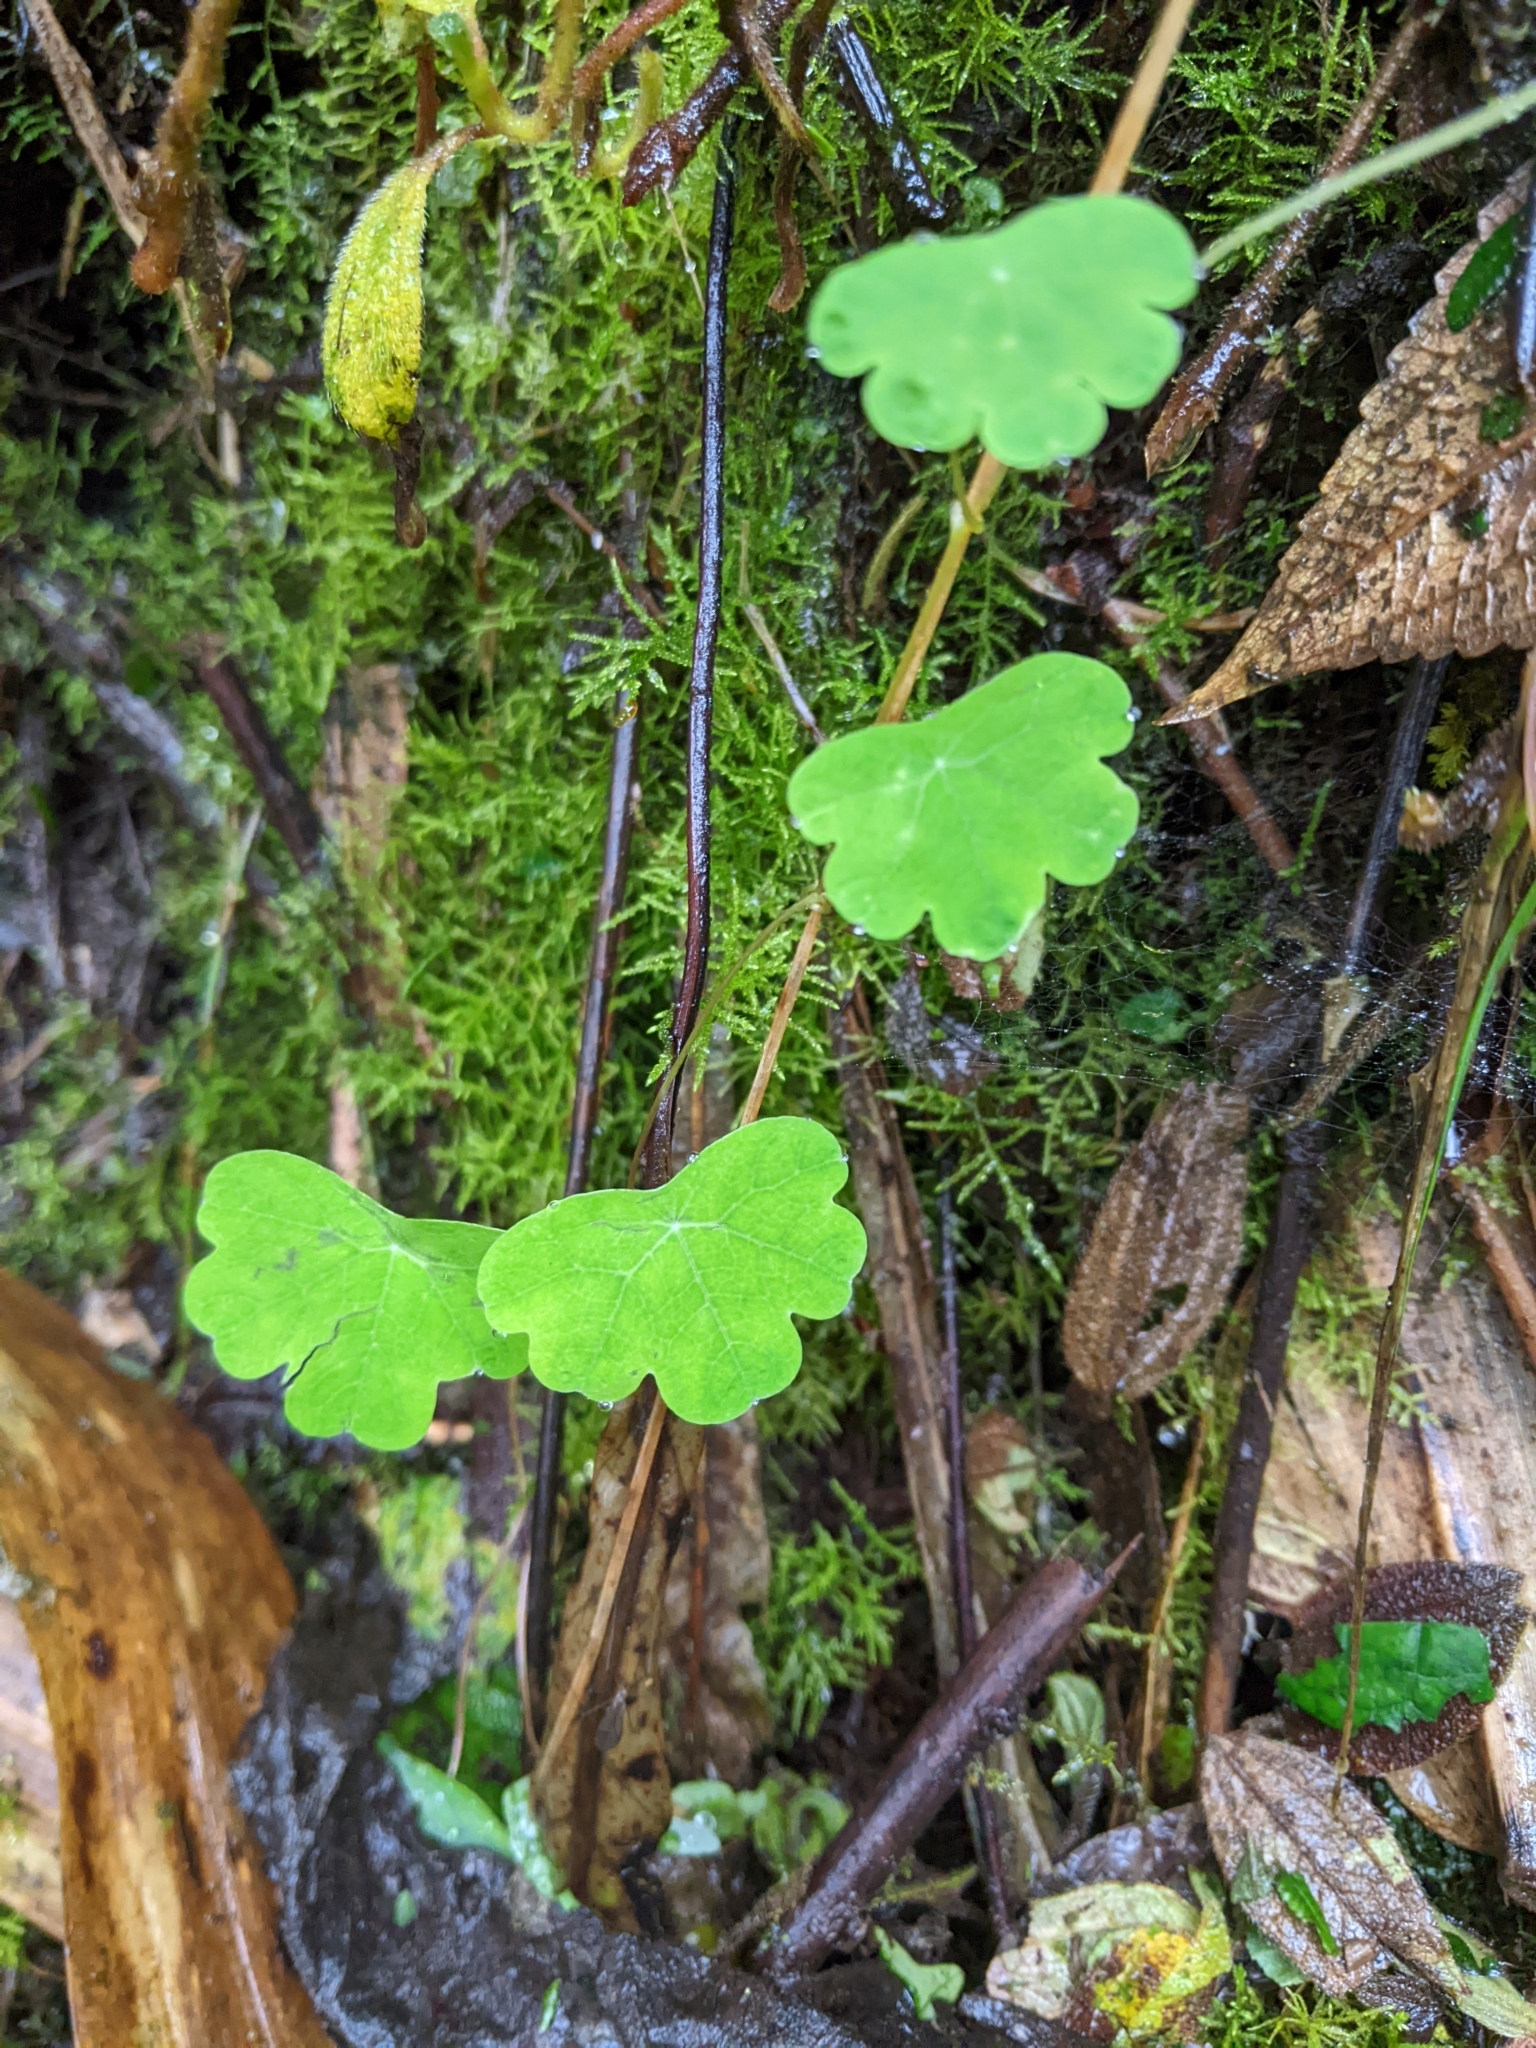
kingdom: Plantae
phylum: Tracheophyta
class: Magnoliopsida
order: Brassicales
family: Tropaeolaceae
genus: Tropaeolum
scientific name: Tropaeolum tuberosum
